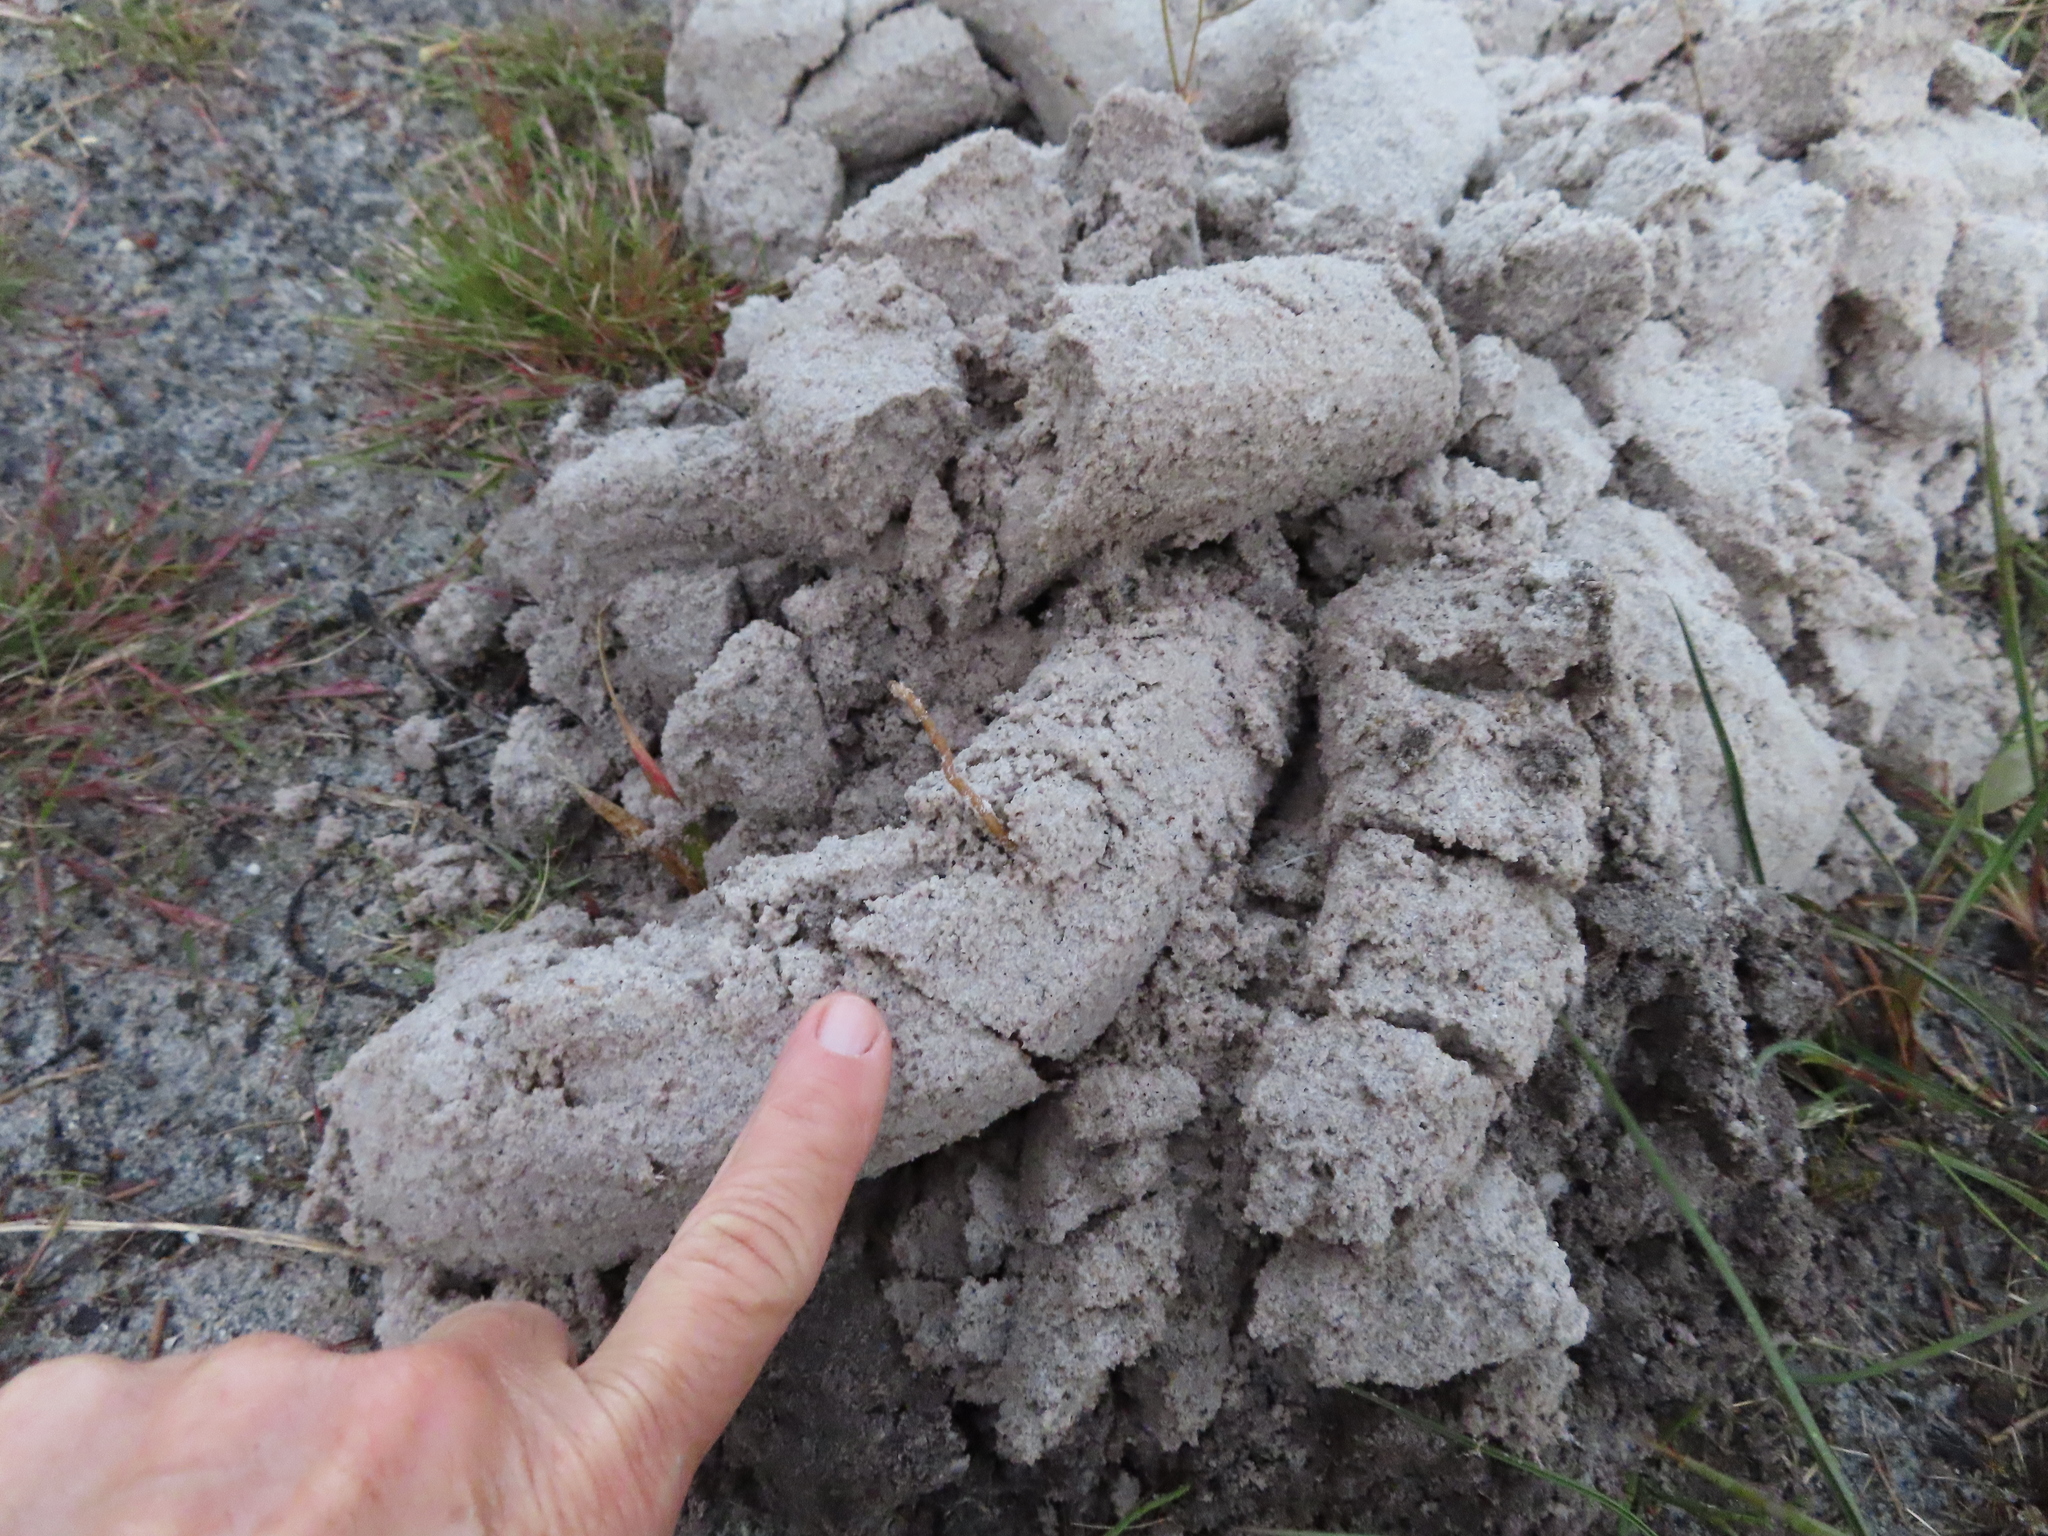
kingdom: Animalia
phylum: Chordata
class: Mammalia
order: Rodentia
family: Bathyergidae
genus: Bathyergus
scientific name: Bathyergus suillus
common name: Cape dune mole rat
